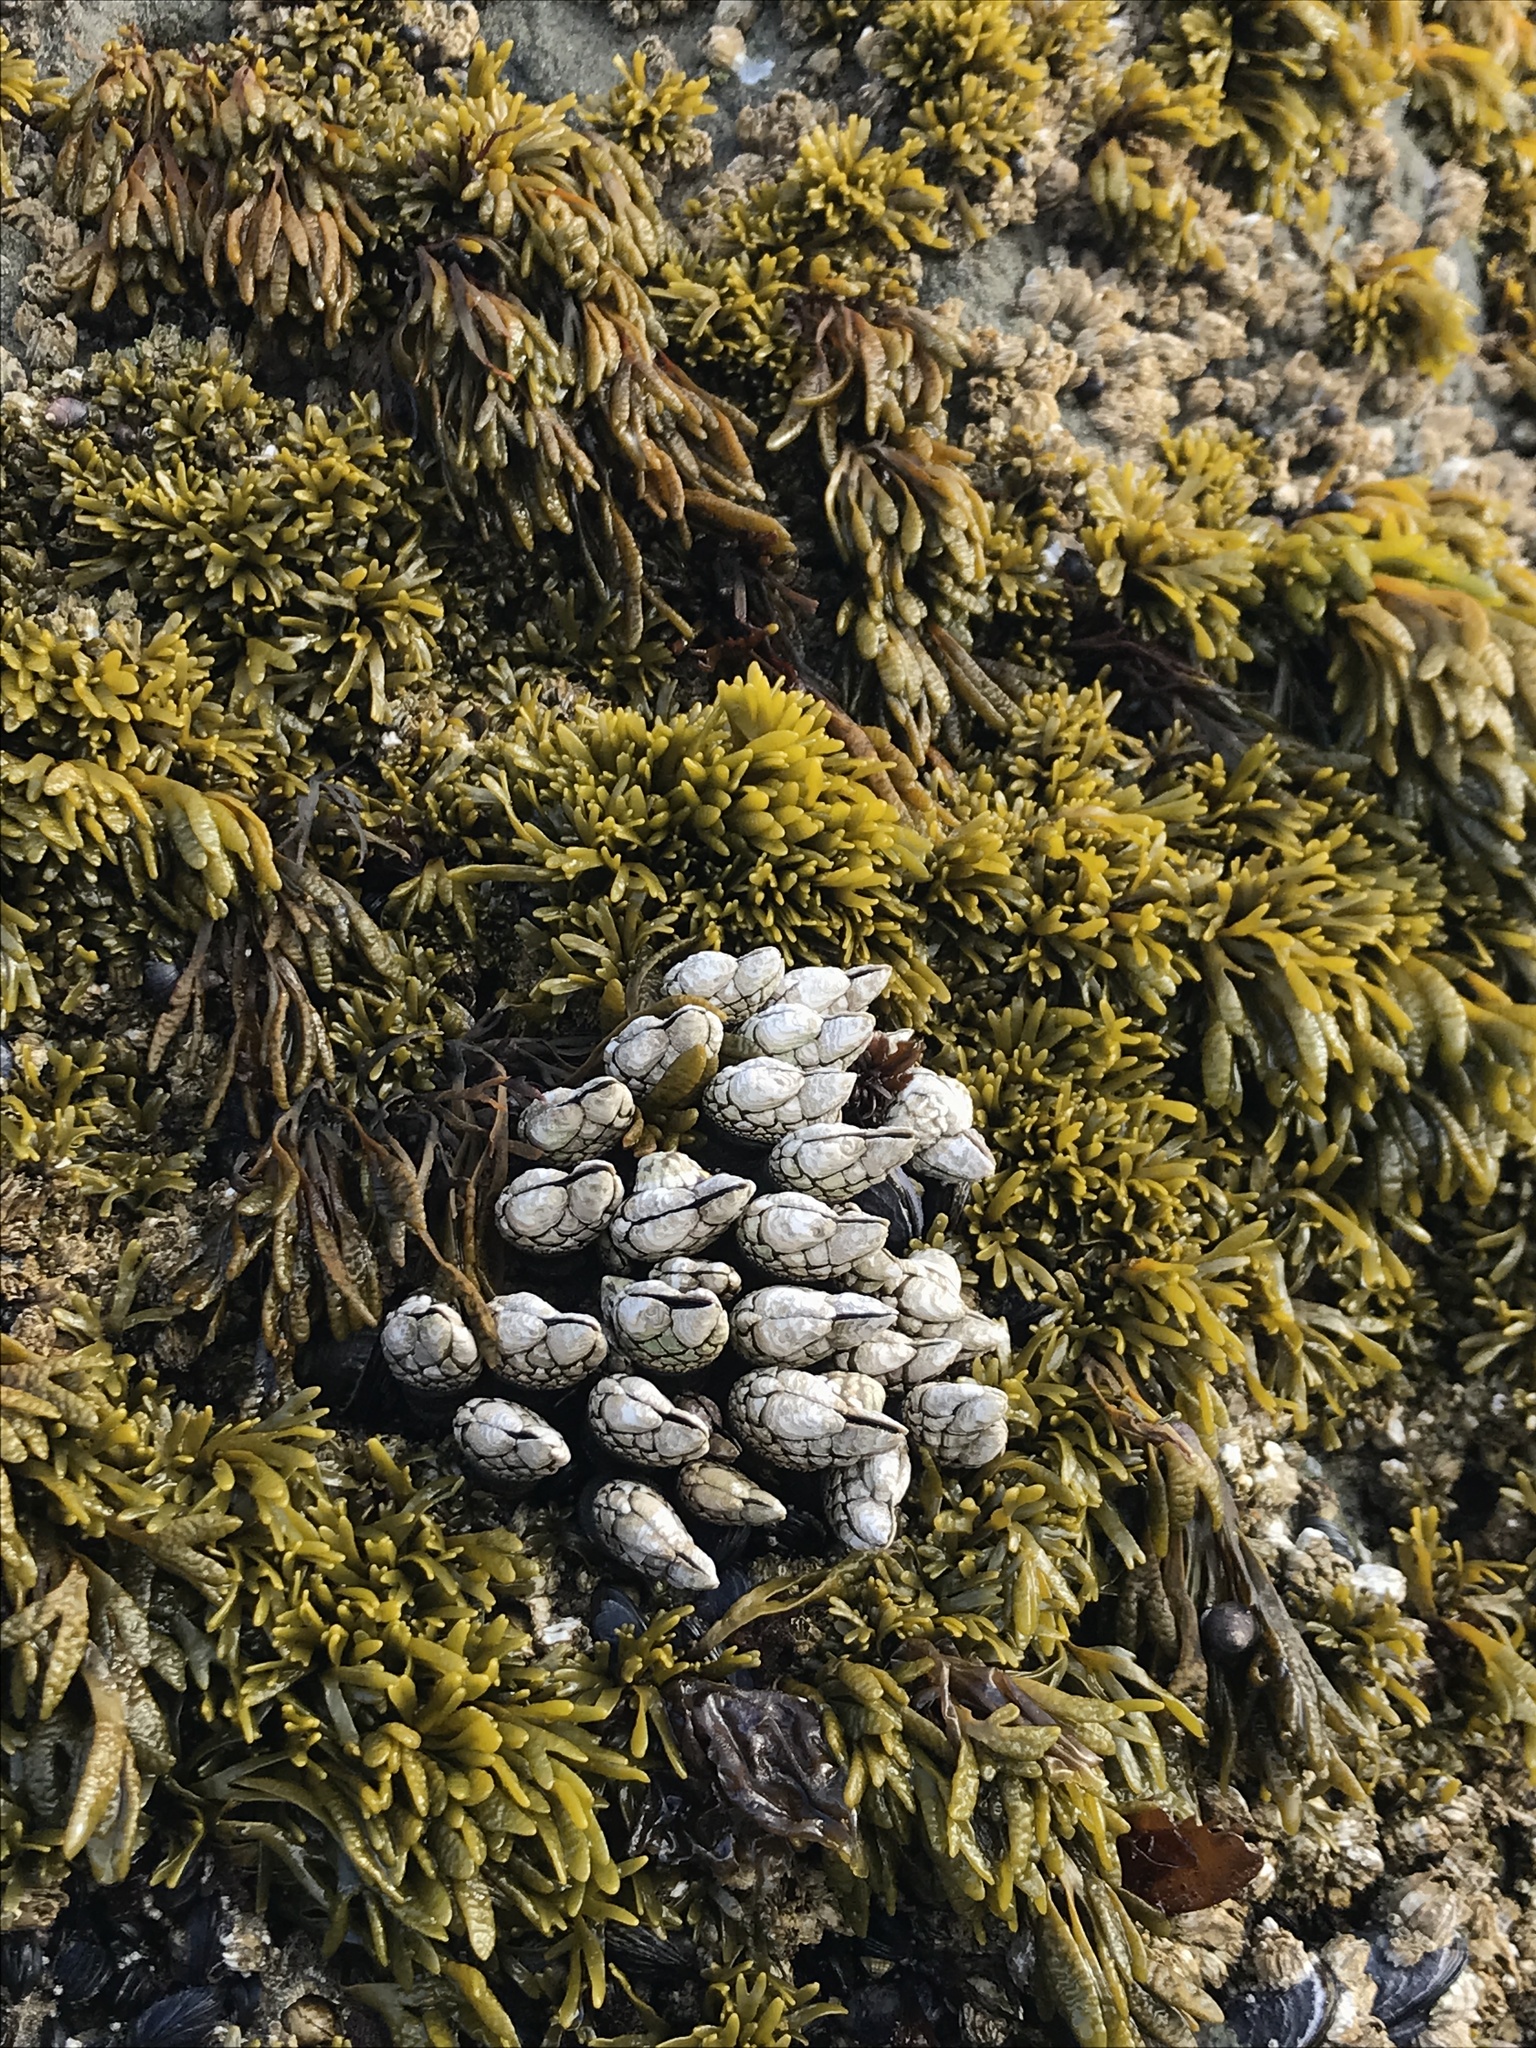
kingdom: Animalia
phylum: Arthropoda
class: Maxillopoda
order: Pedunculata
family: Pollicipedidae
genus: Pollicipes
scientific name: Pollicipes polymerus
